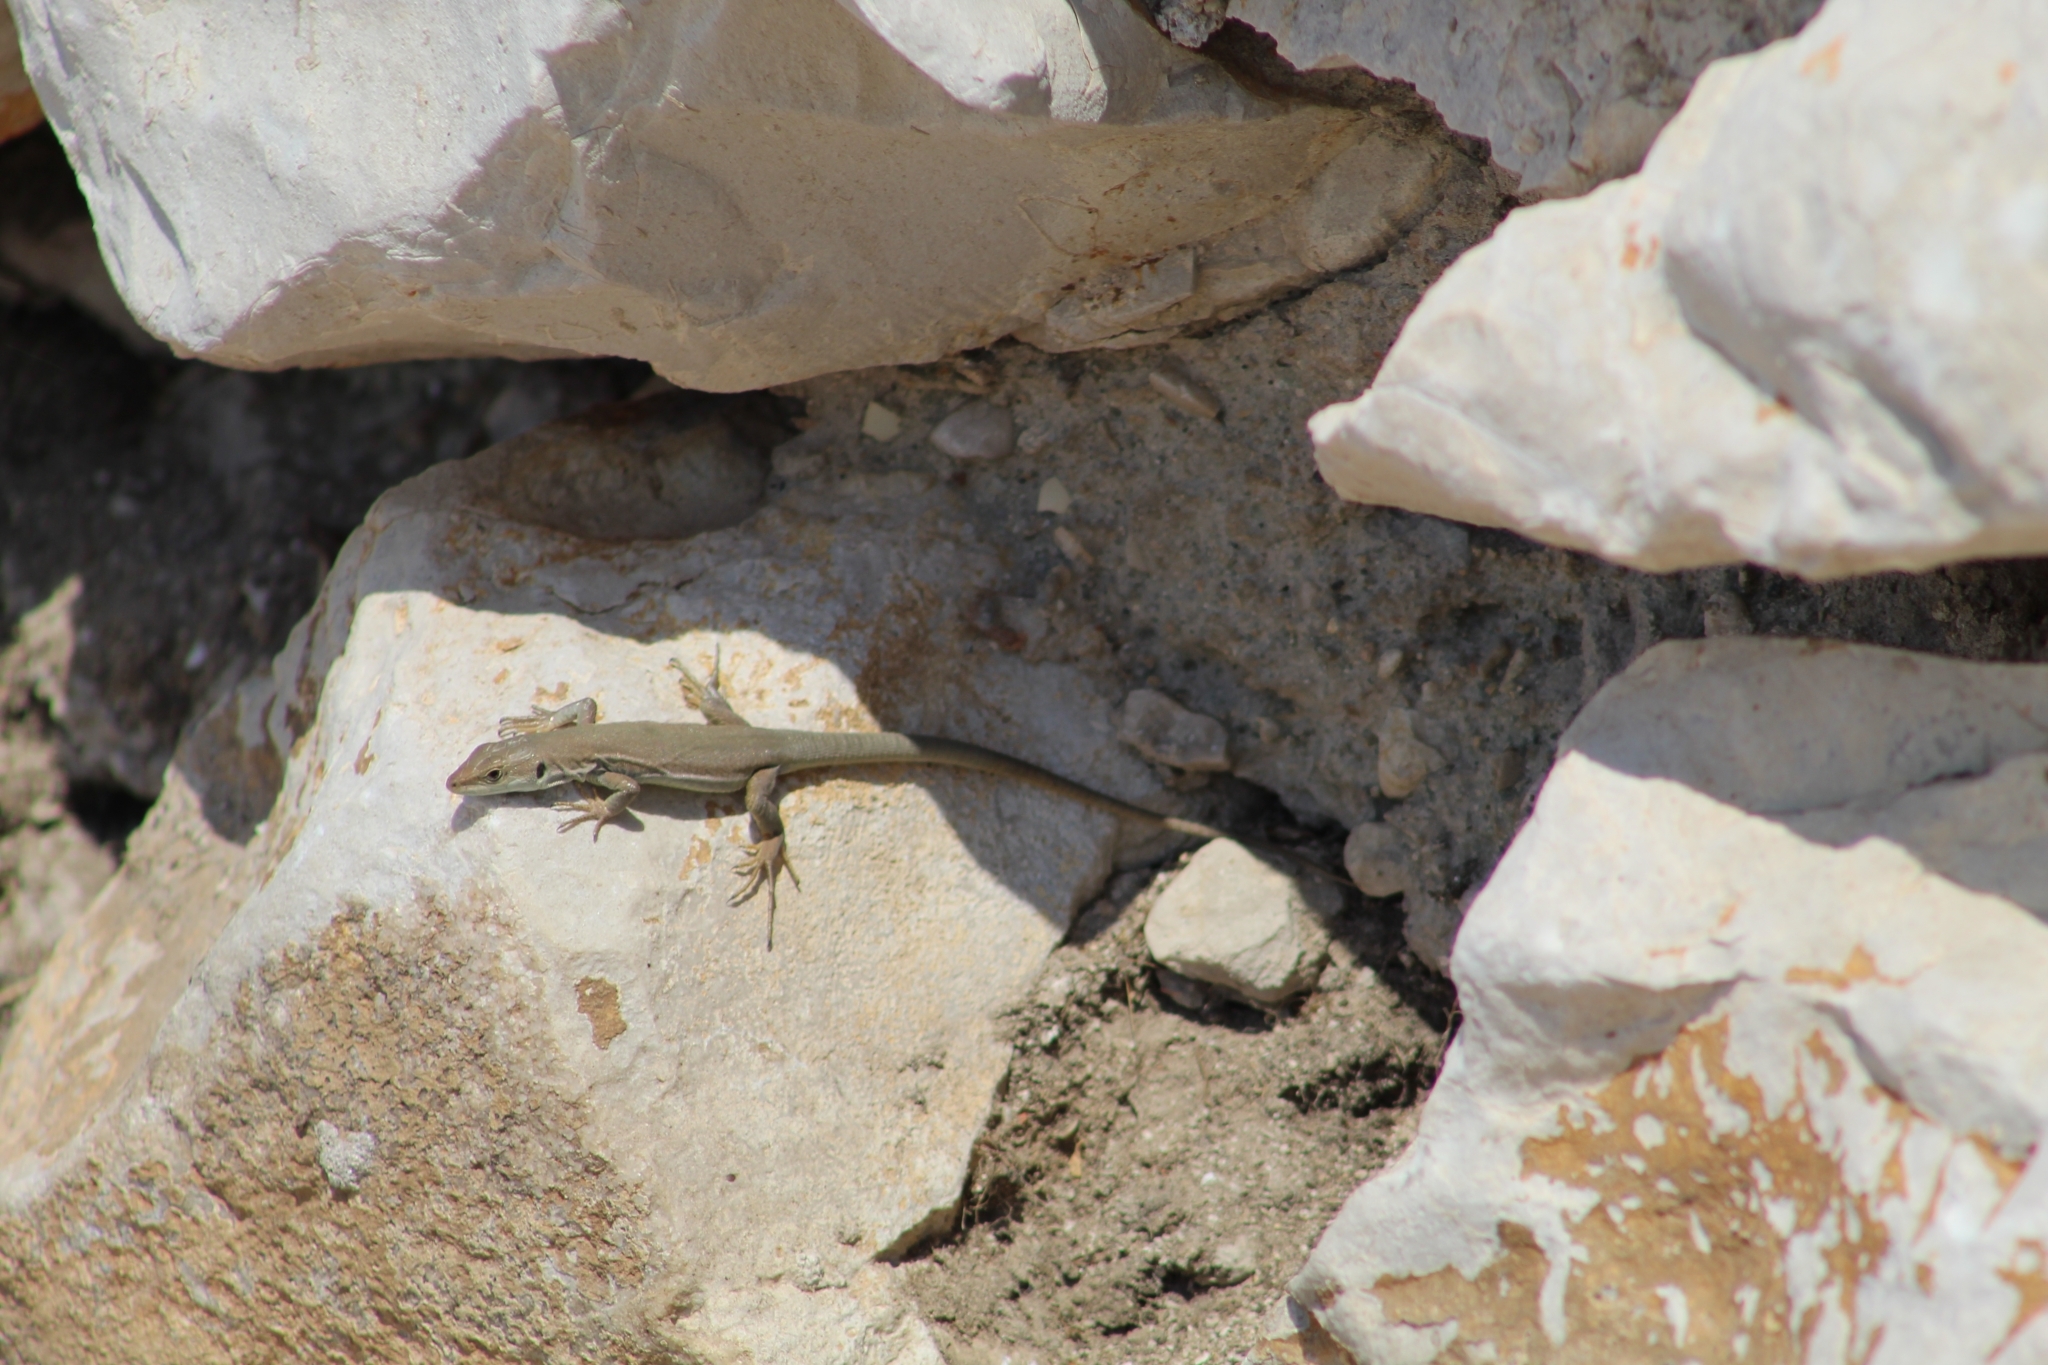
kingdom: Animalia
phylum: Chordata
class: Squamata
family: Lacertidae
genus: Podarcis
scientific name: Podarcis siculus
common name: Italian wall lizard
